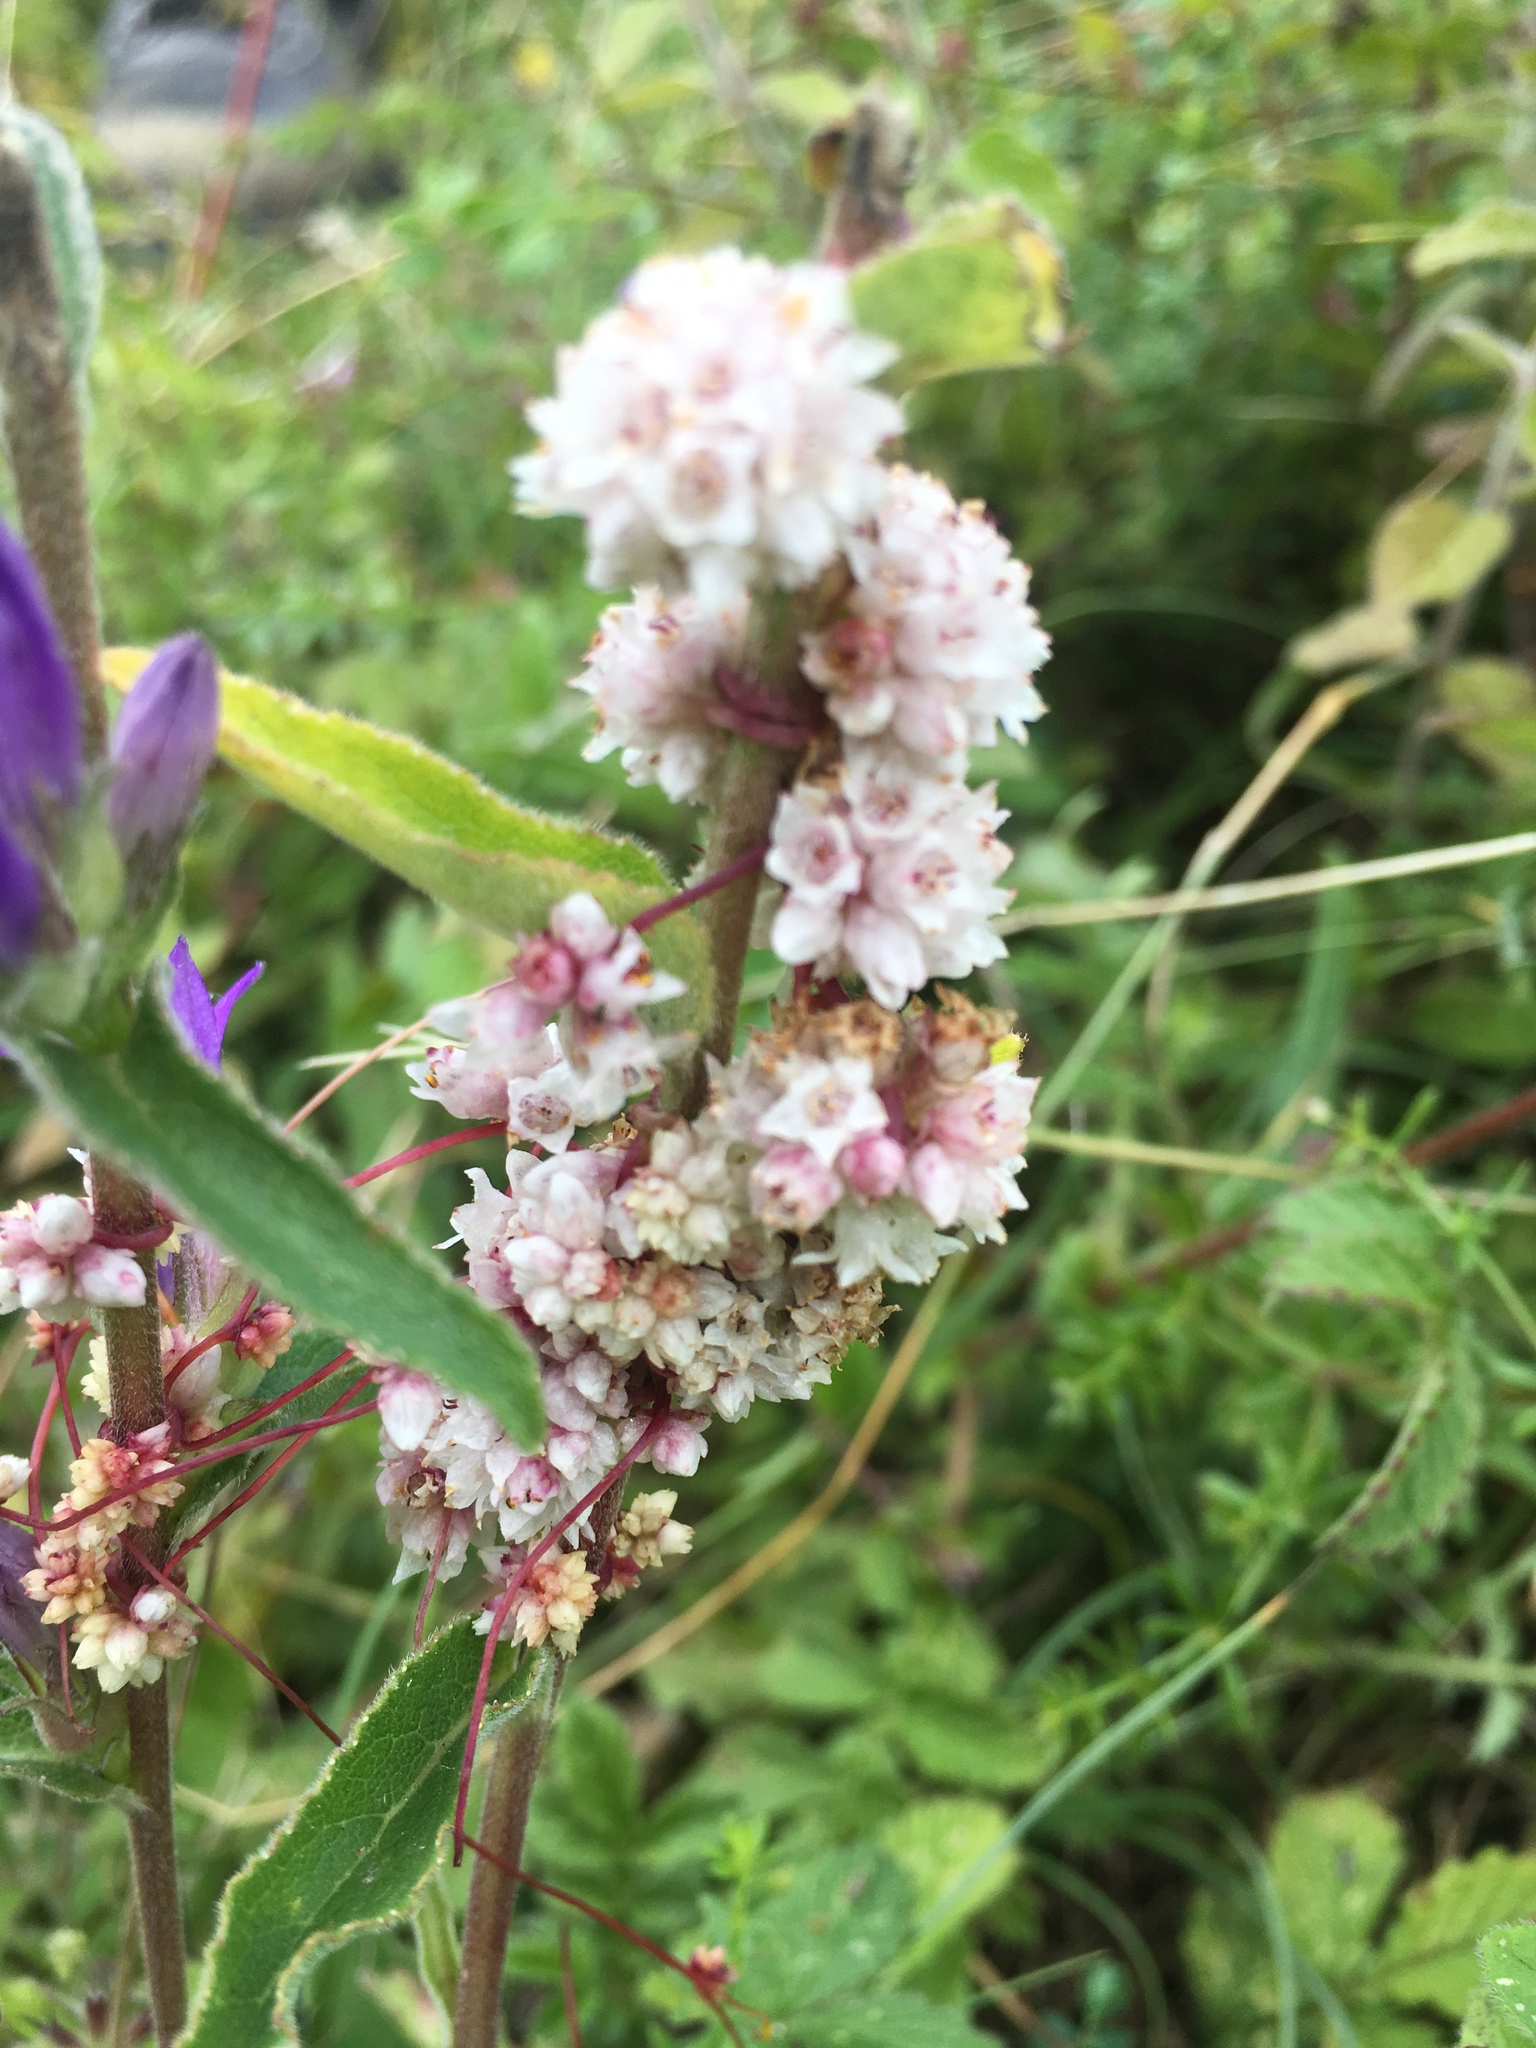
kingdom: Plantae
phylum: Tracheophyta
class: Magnoliopsida
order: Solanales
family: Convolvulaceae
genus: Cuscuta
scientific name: Cuscuta epithymum
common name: Clover dodder
